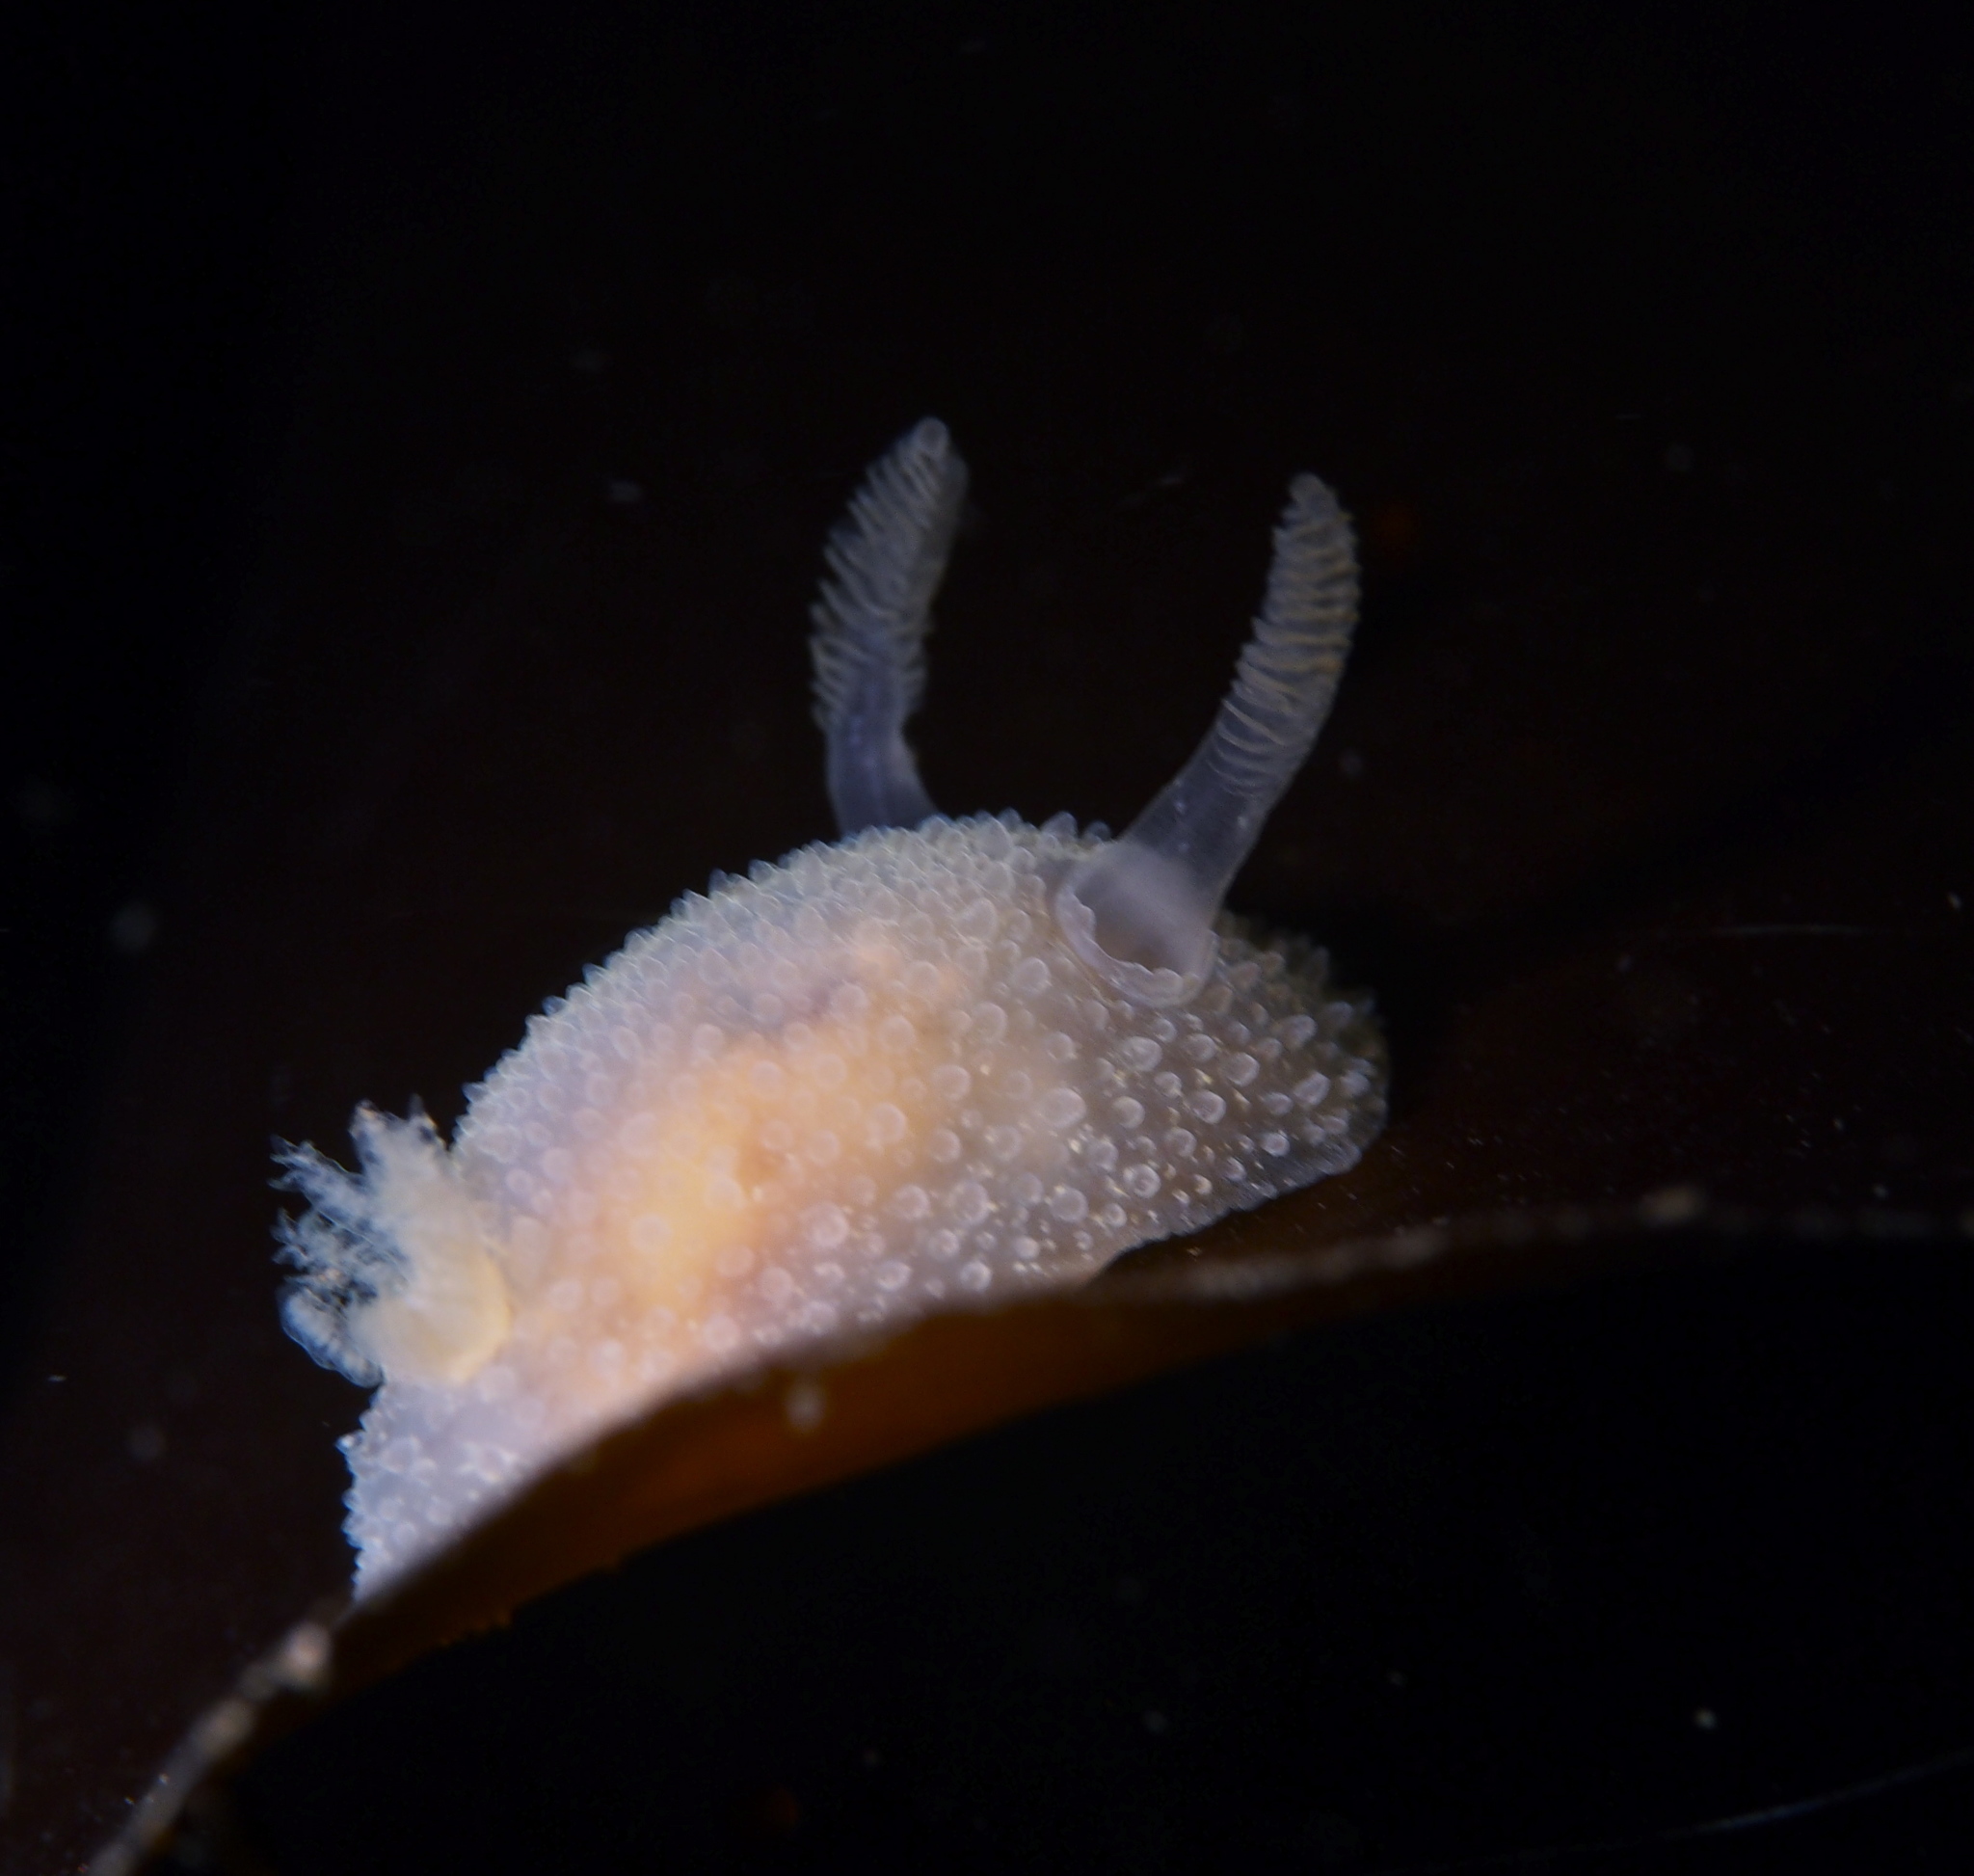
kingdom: Animalia
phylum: Mollusca
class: Gastropoda
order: Nudibranchia
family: Onchidorididae
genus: Acanthodoris
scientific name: Acanthodoris pilosa
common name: Hairy spiny doris
